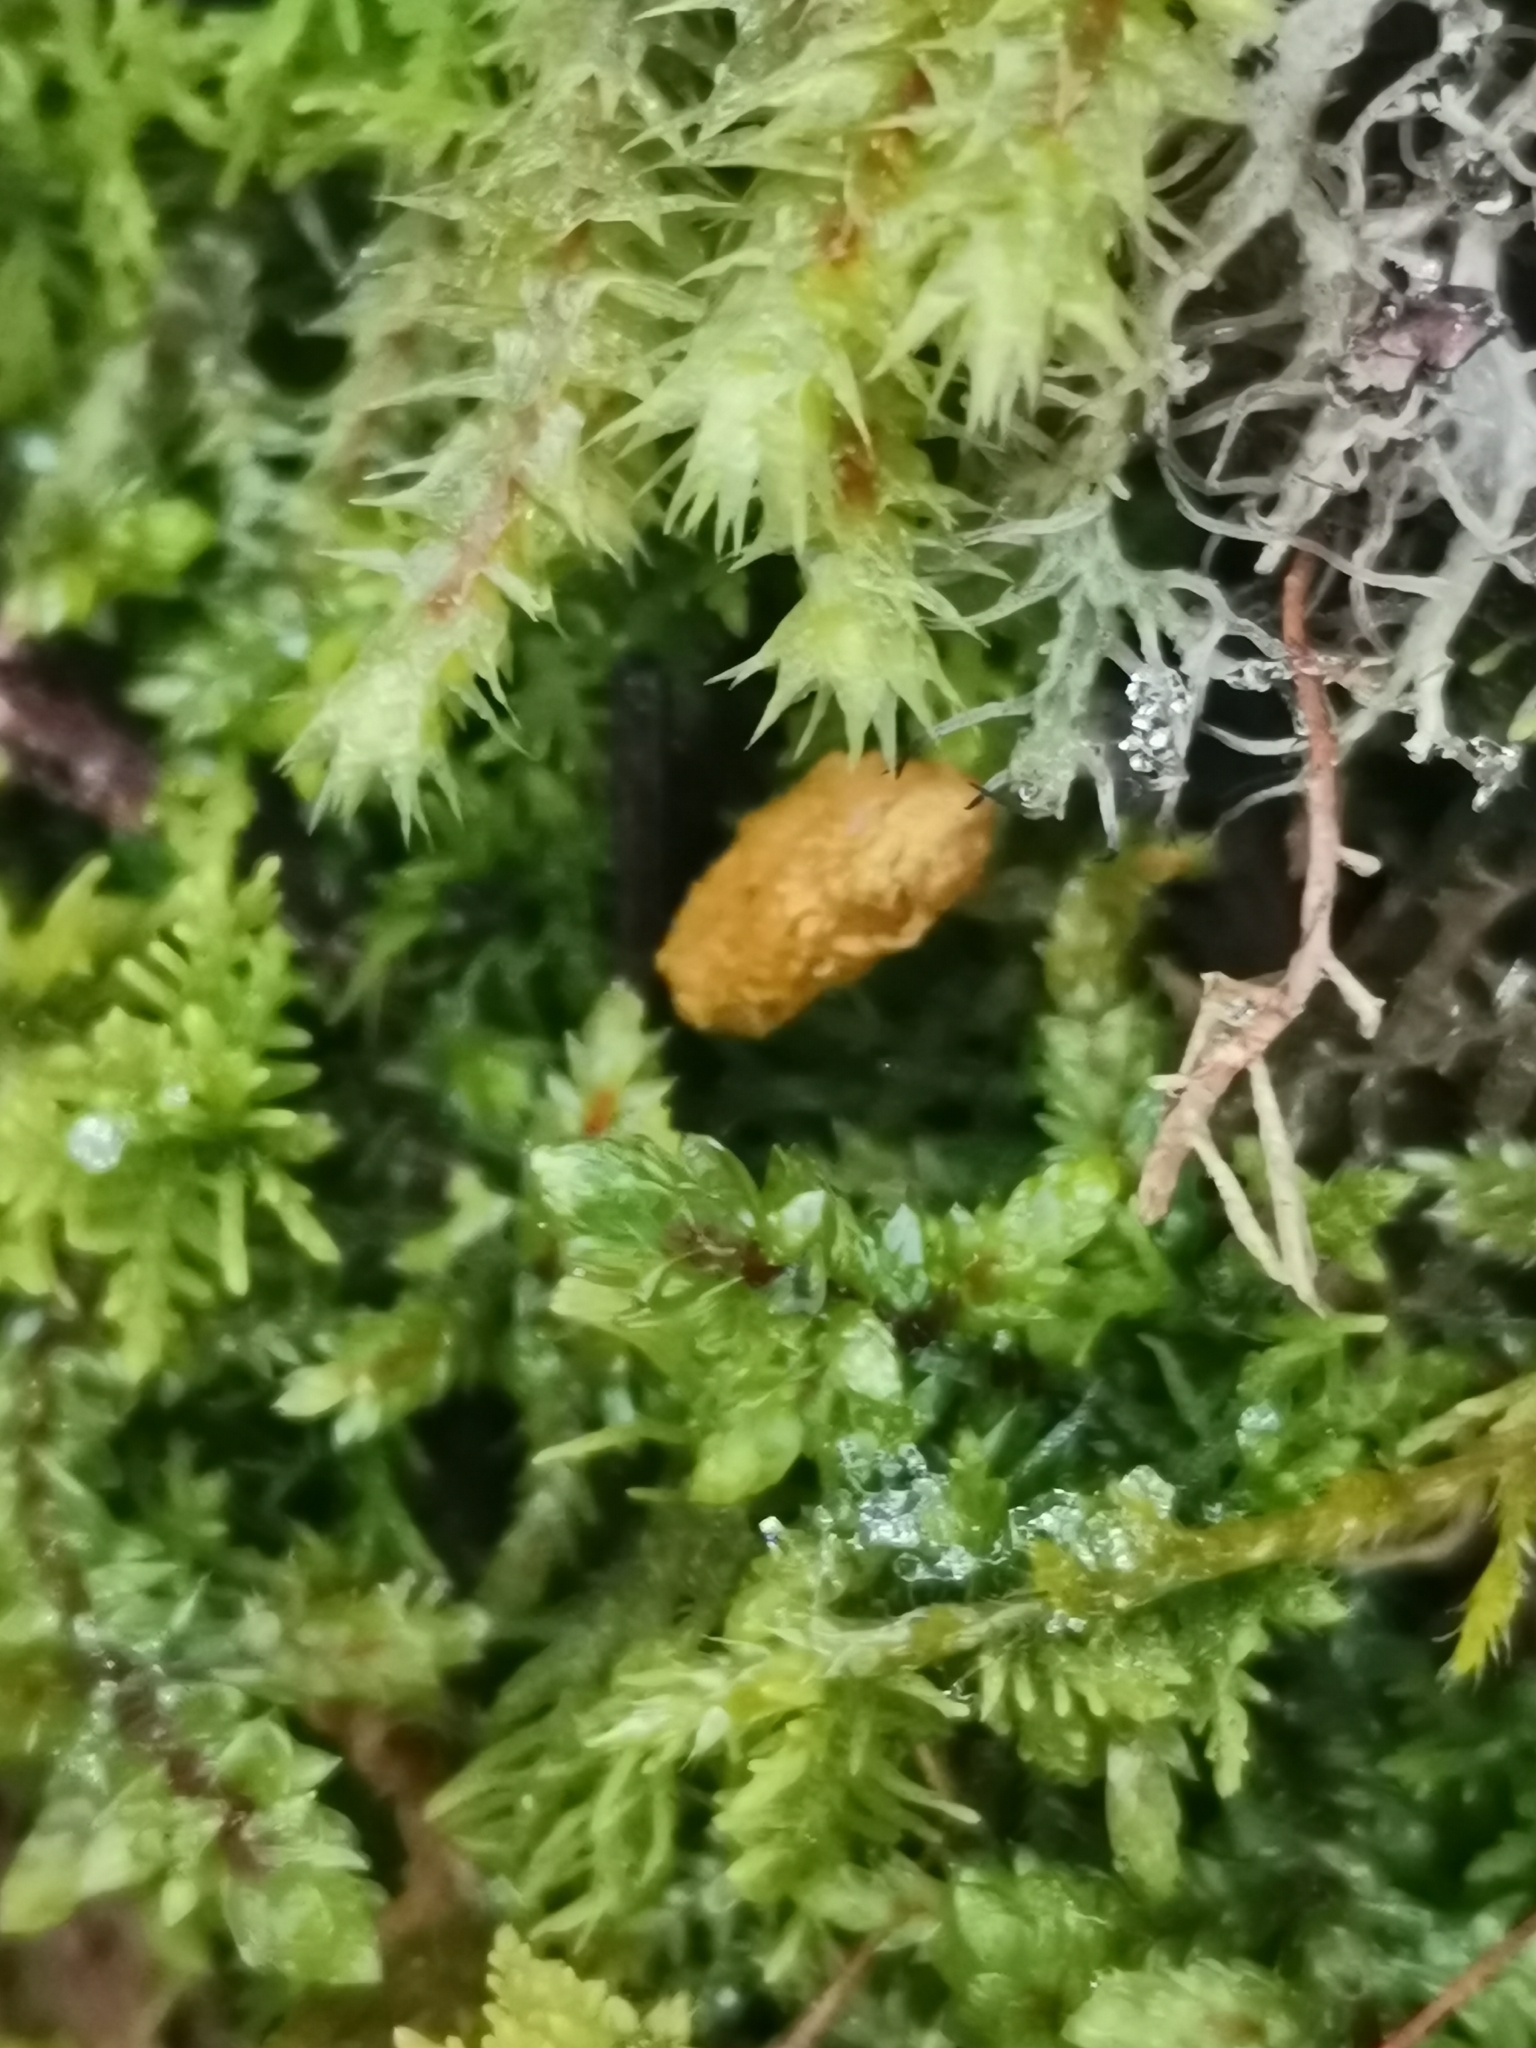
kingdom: Animalia
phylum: Chordata
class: Mammalia
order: Rodentia
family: Sciuridae
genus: Pteromys
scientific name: Pteromys volans
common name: Siberian flying squirrel
